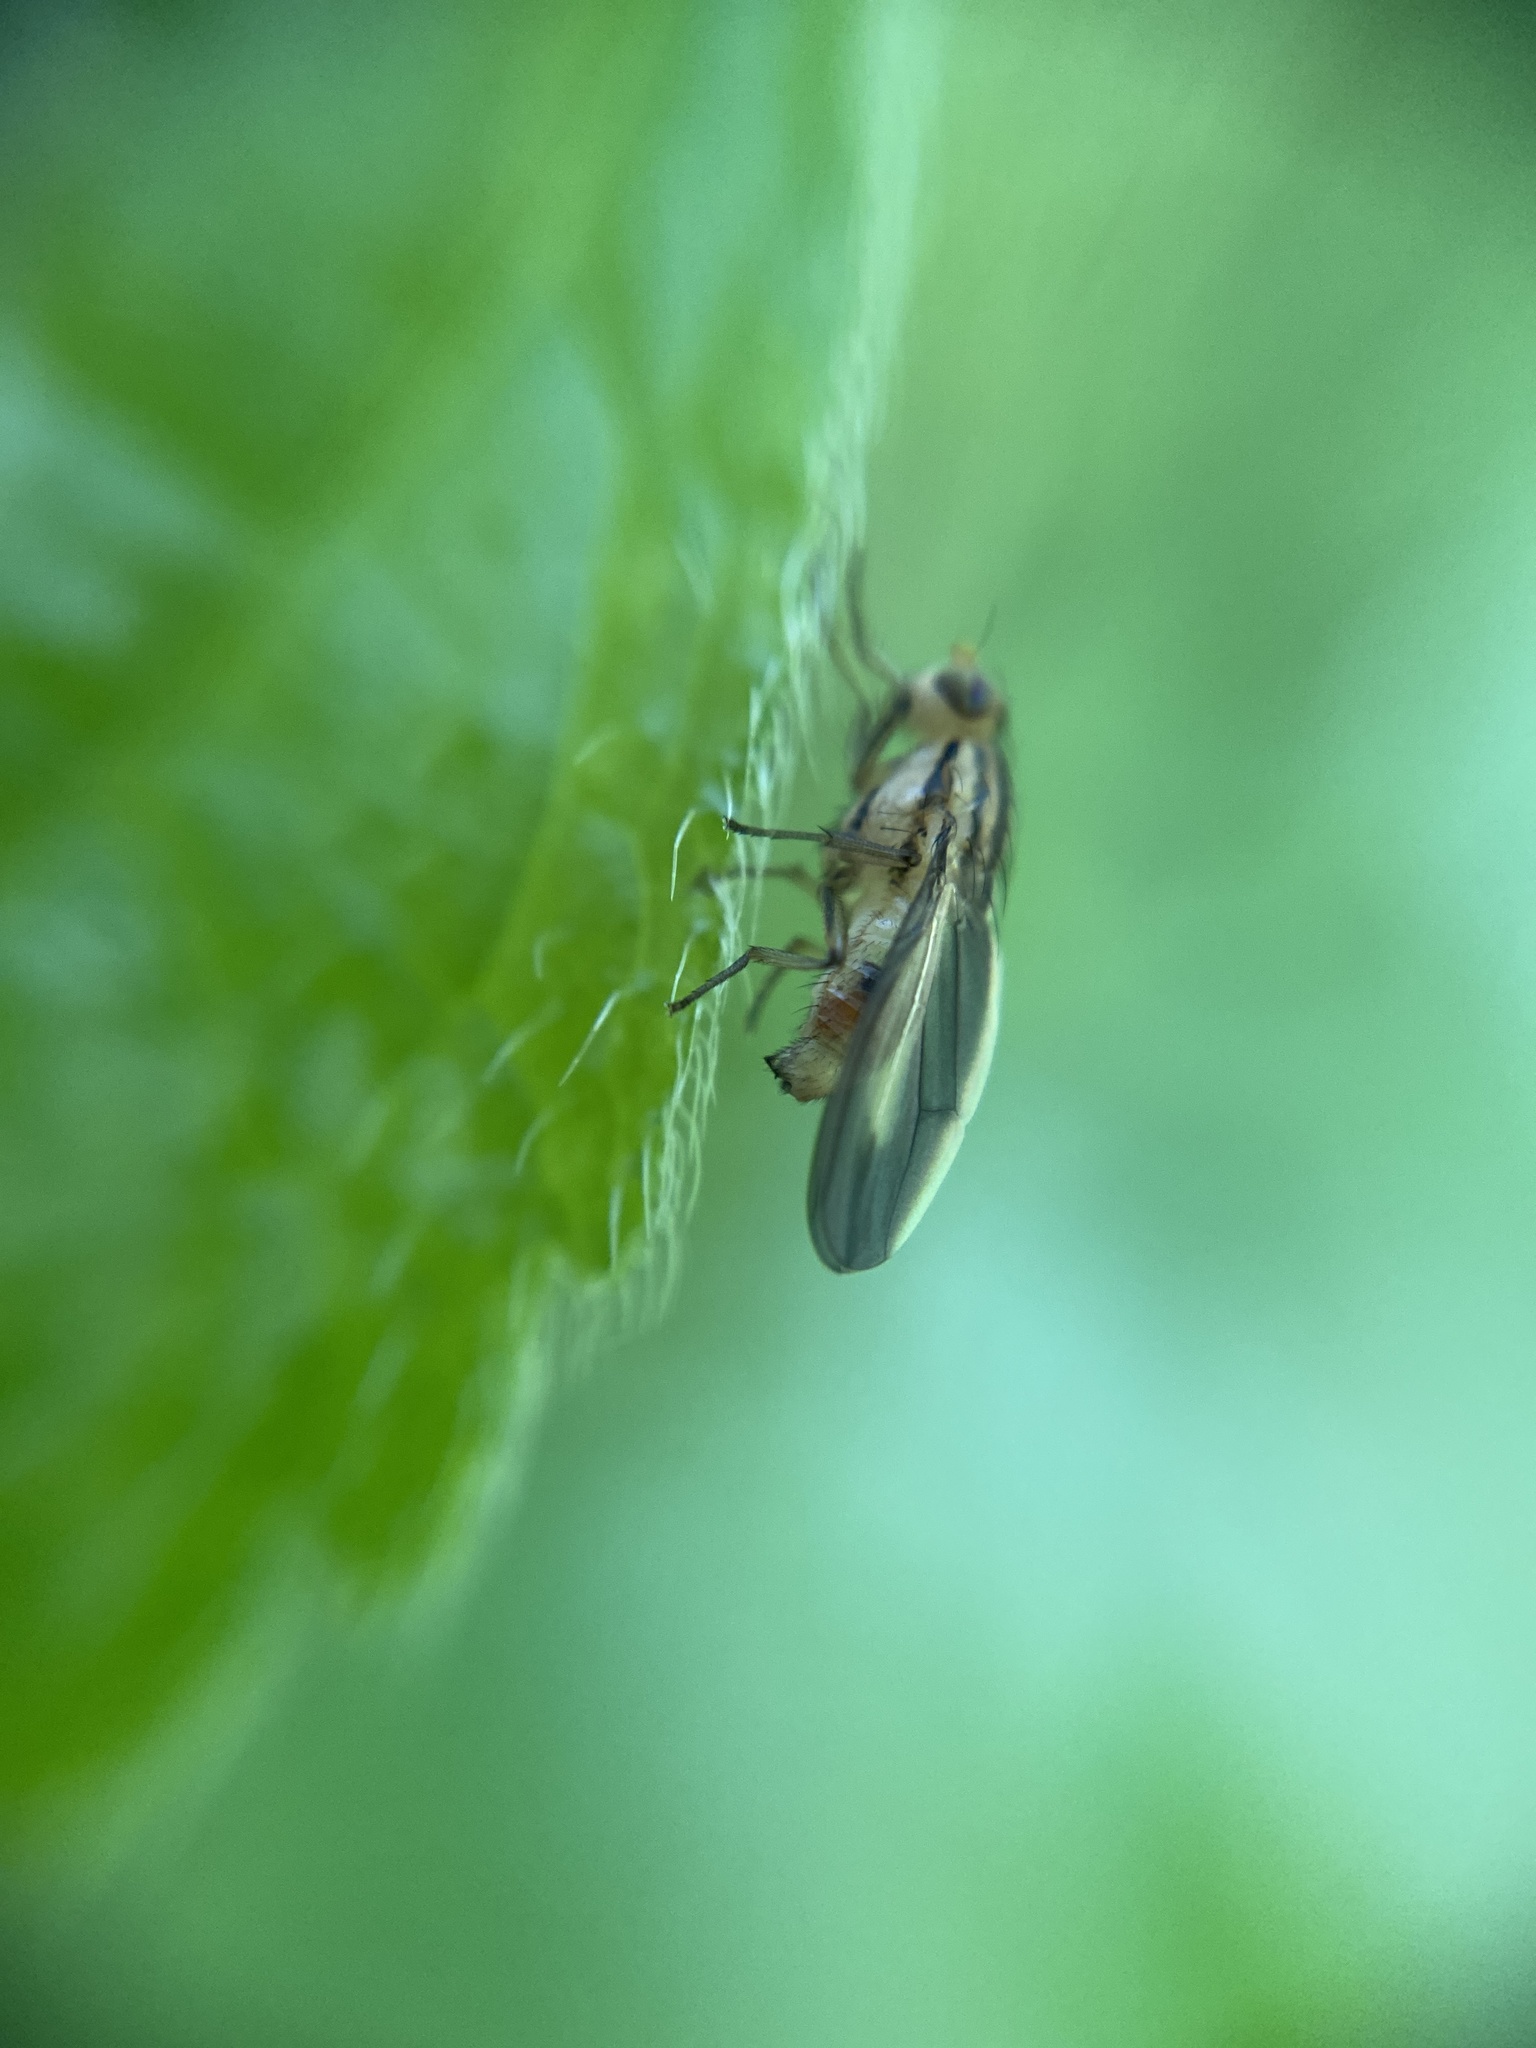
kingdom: Animalia
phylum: Arthropoda
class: Insecta
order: Diptera
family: Lauxaniidae
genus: Peplomyza
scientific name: Peplomyza discoidea
